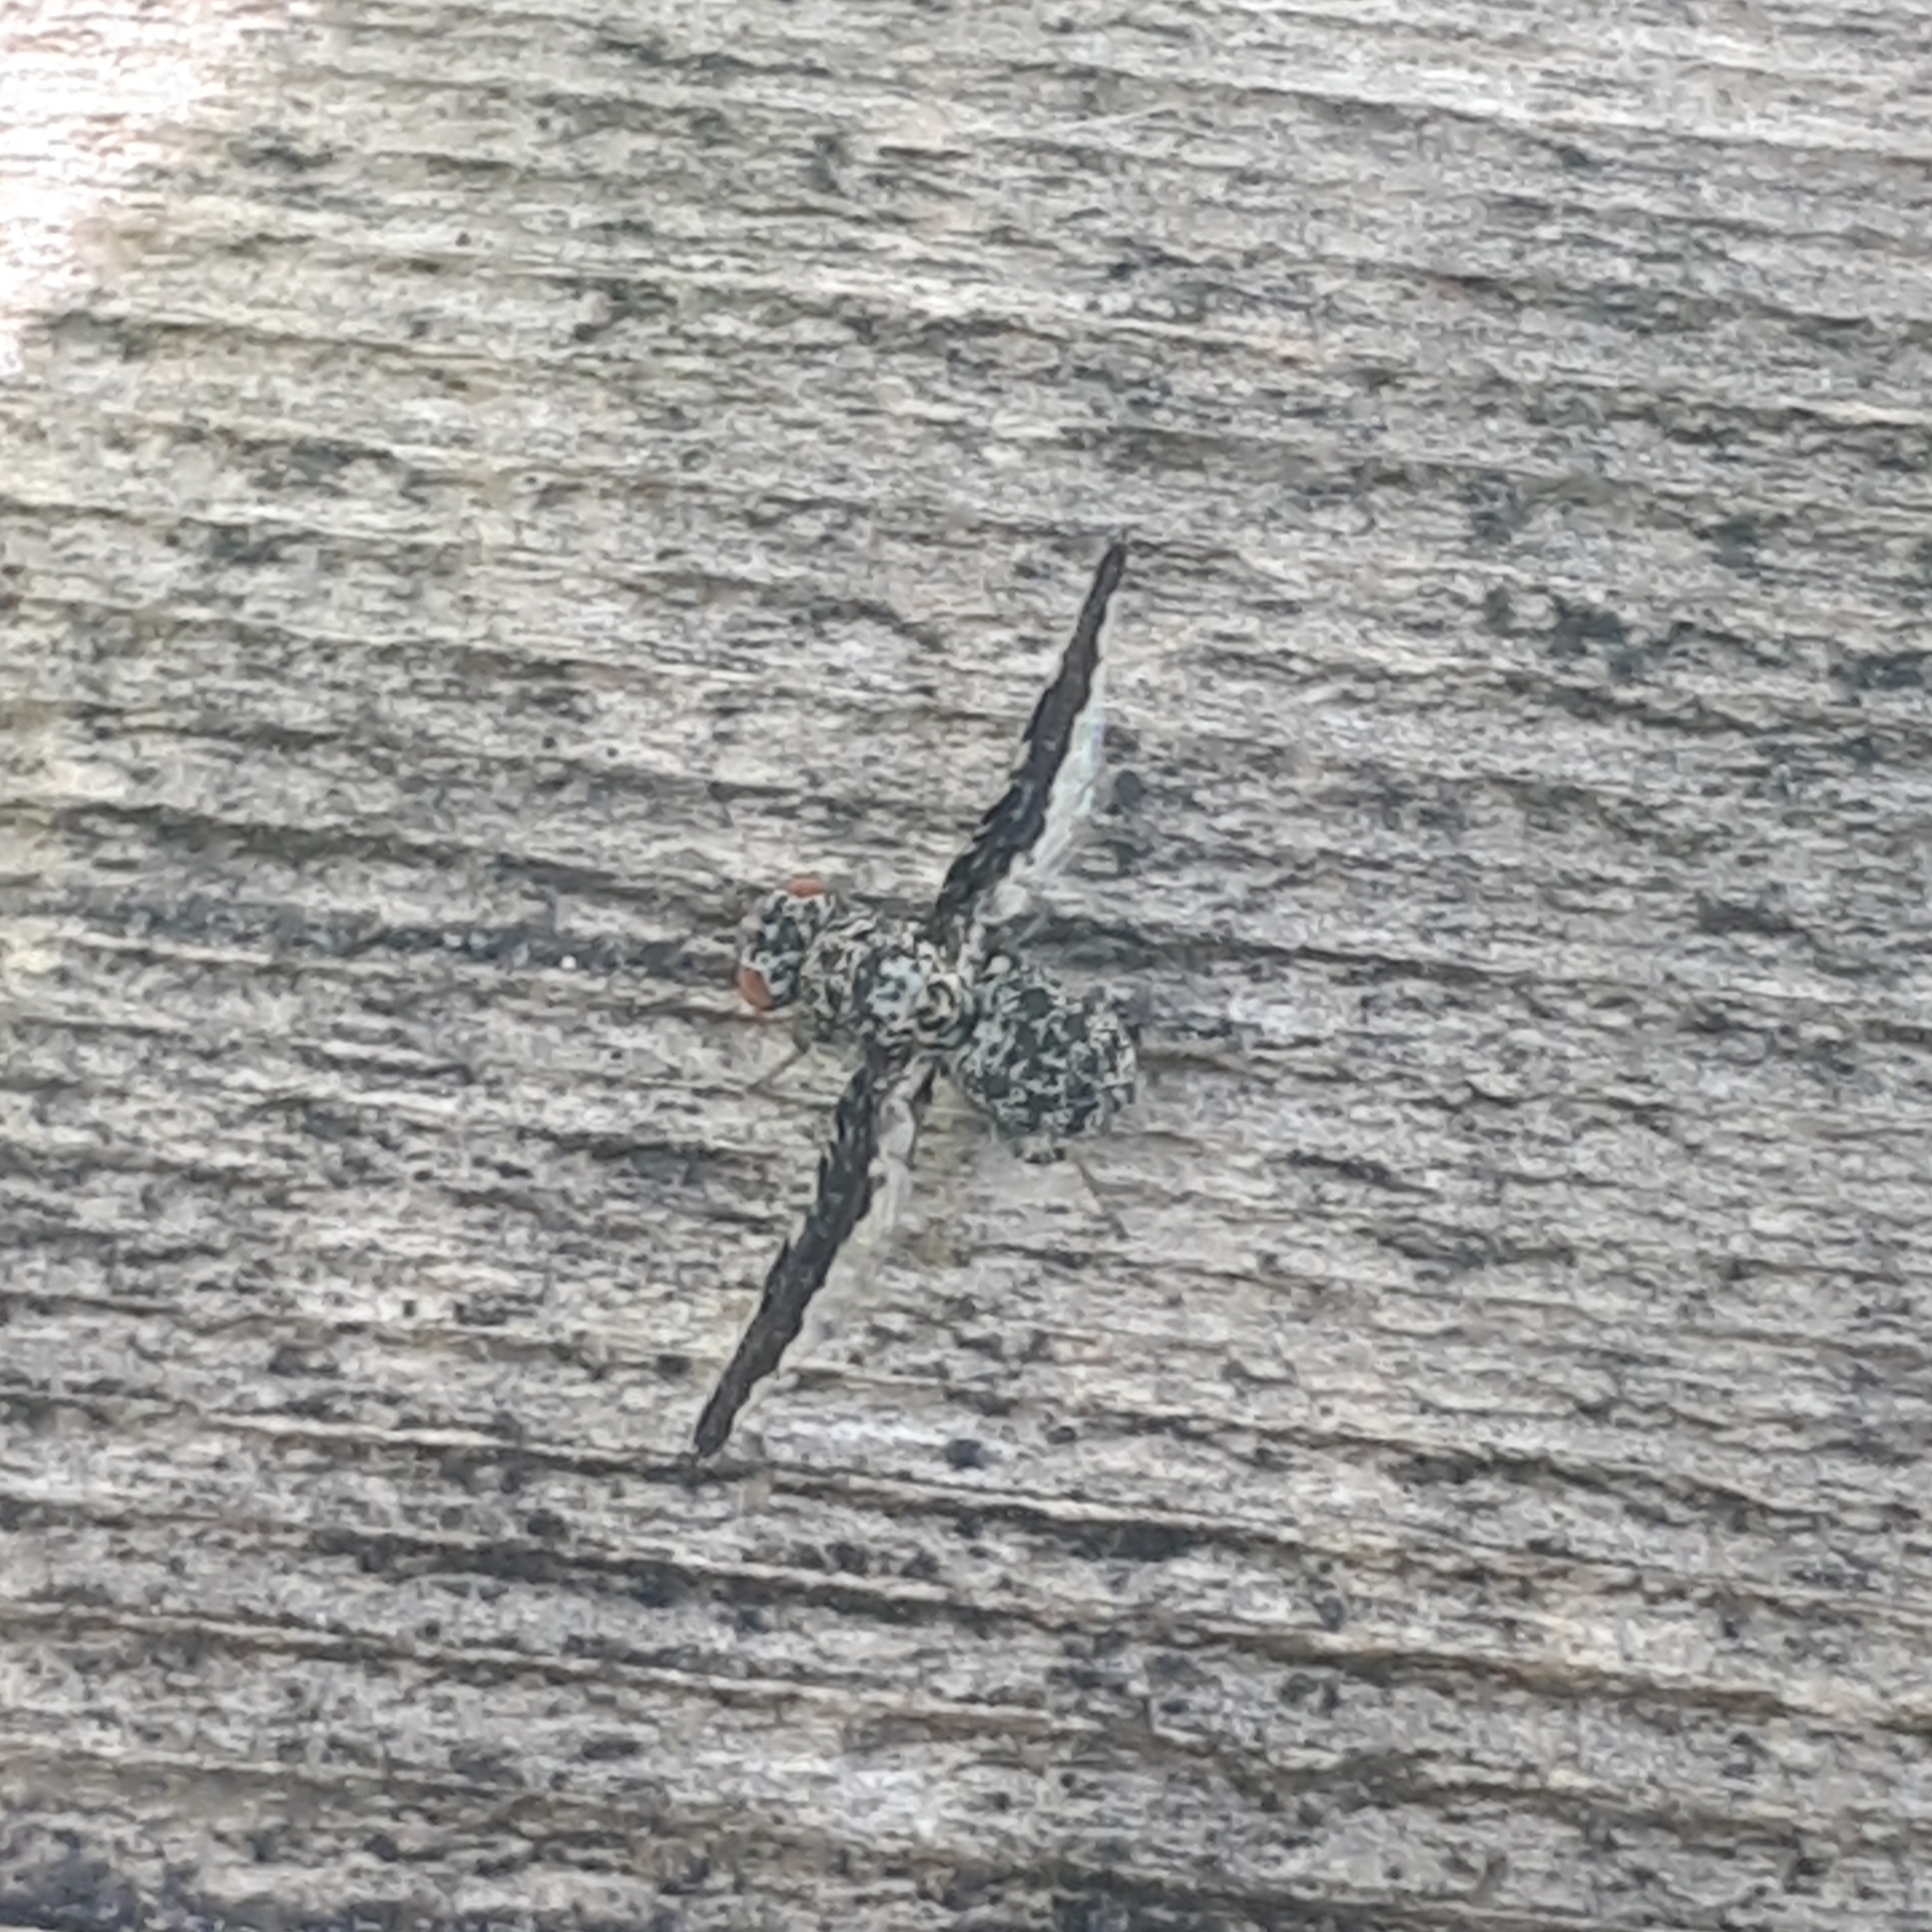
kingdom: Animalia
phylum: Arthropoda
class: Insecta
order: Diptera
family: Ulidiidae
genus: Callopistromyia
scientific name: Callopistromyia strigula
